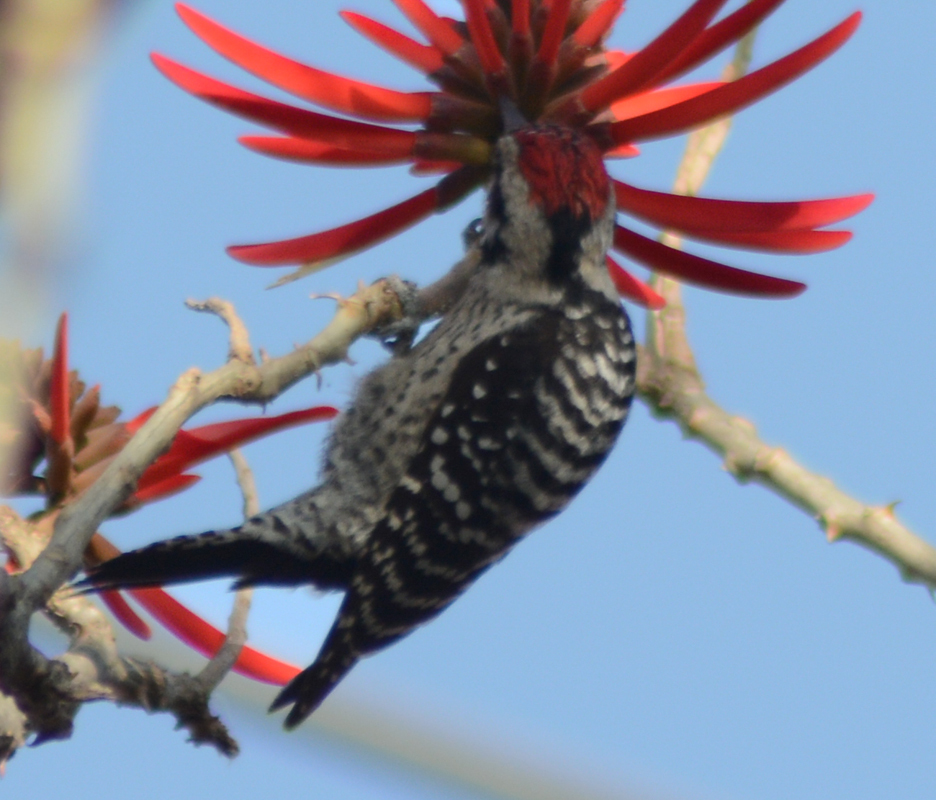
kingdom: Animalia
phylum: Chordata
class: Aves
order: Piciformes
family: Picidae
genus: Dryobates
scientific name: Dryobates scalaris
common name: Ladder-backed woodpecker
